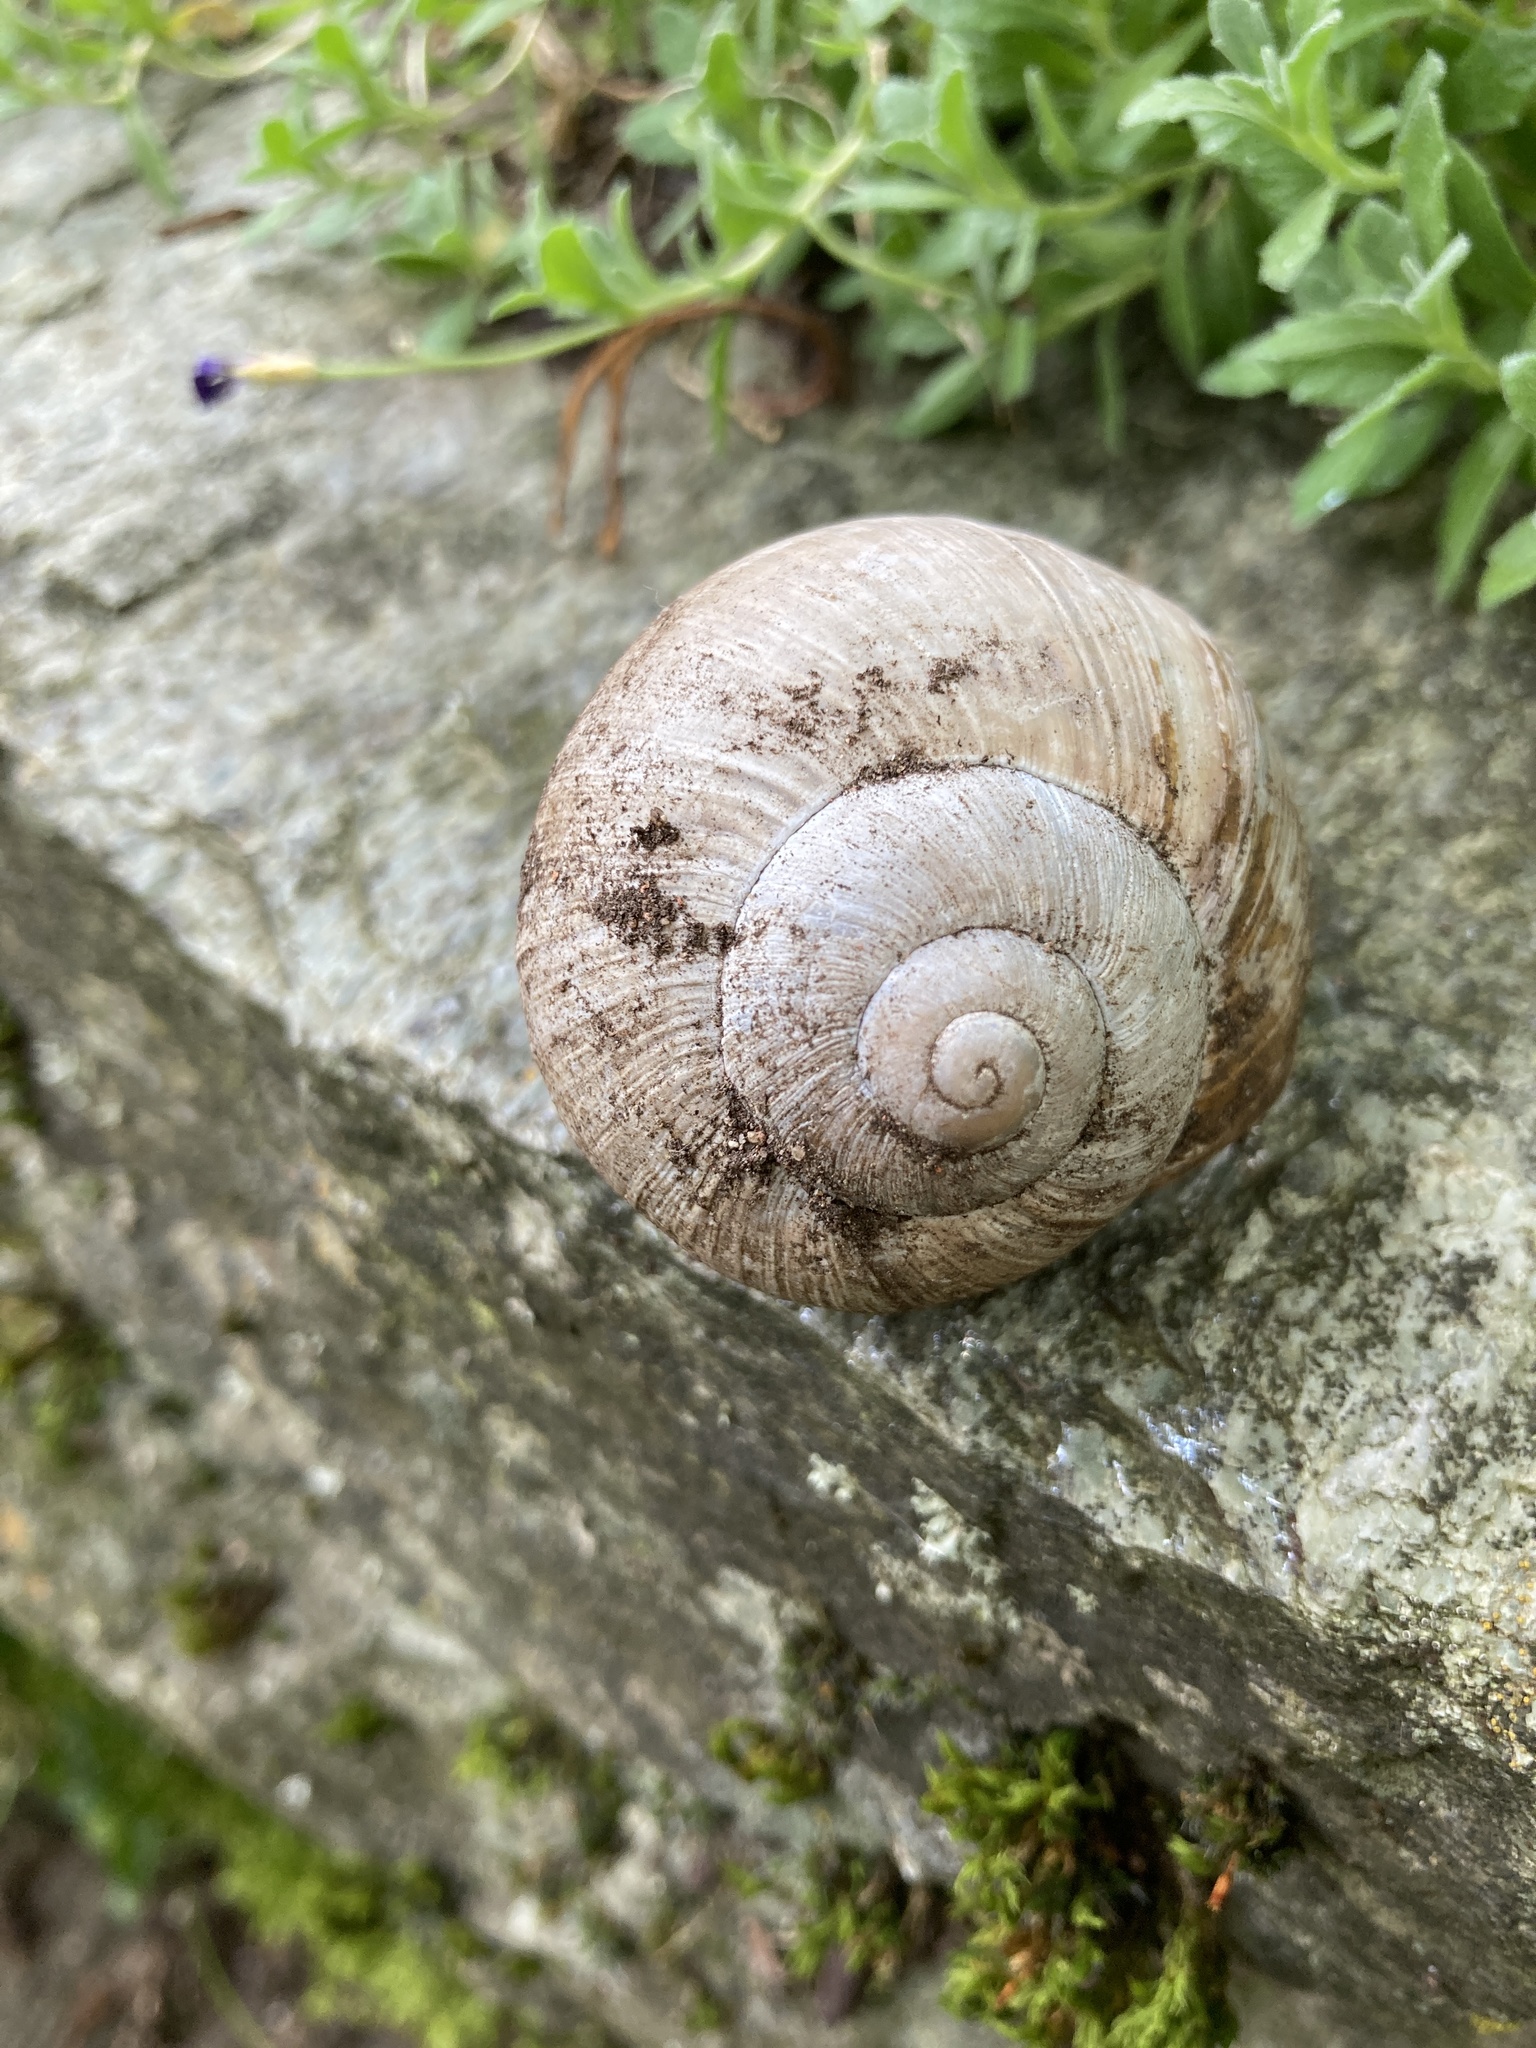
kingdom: Animalia
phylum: Mollusca
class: Gastropoda
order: Stylommatophora
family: Helicidae
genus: Helix
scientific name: Helix pomatia
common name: Roman snail
